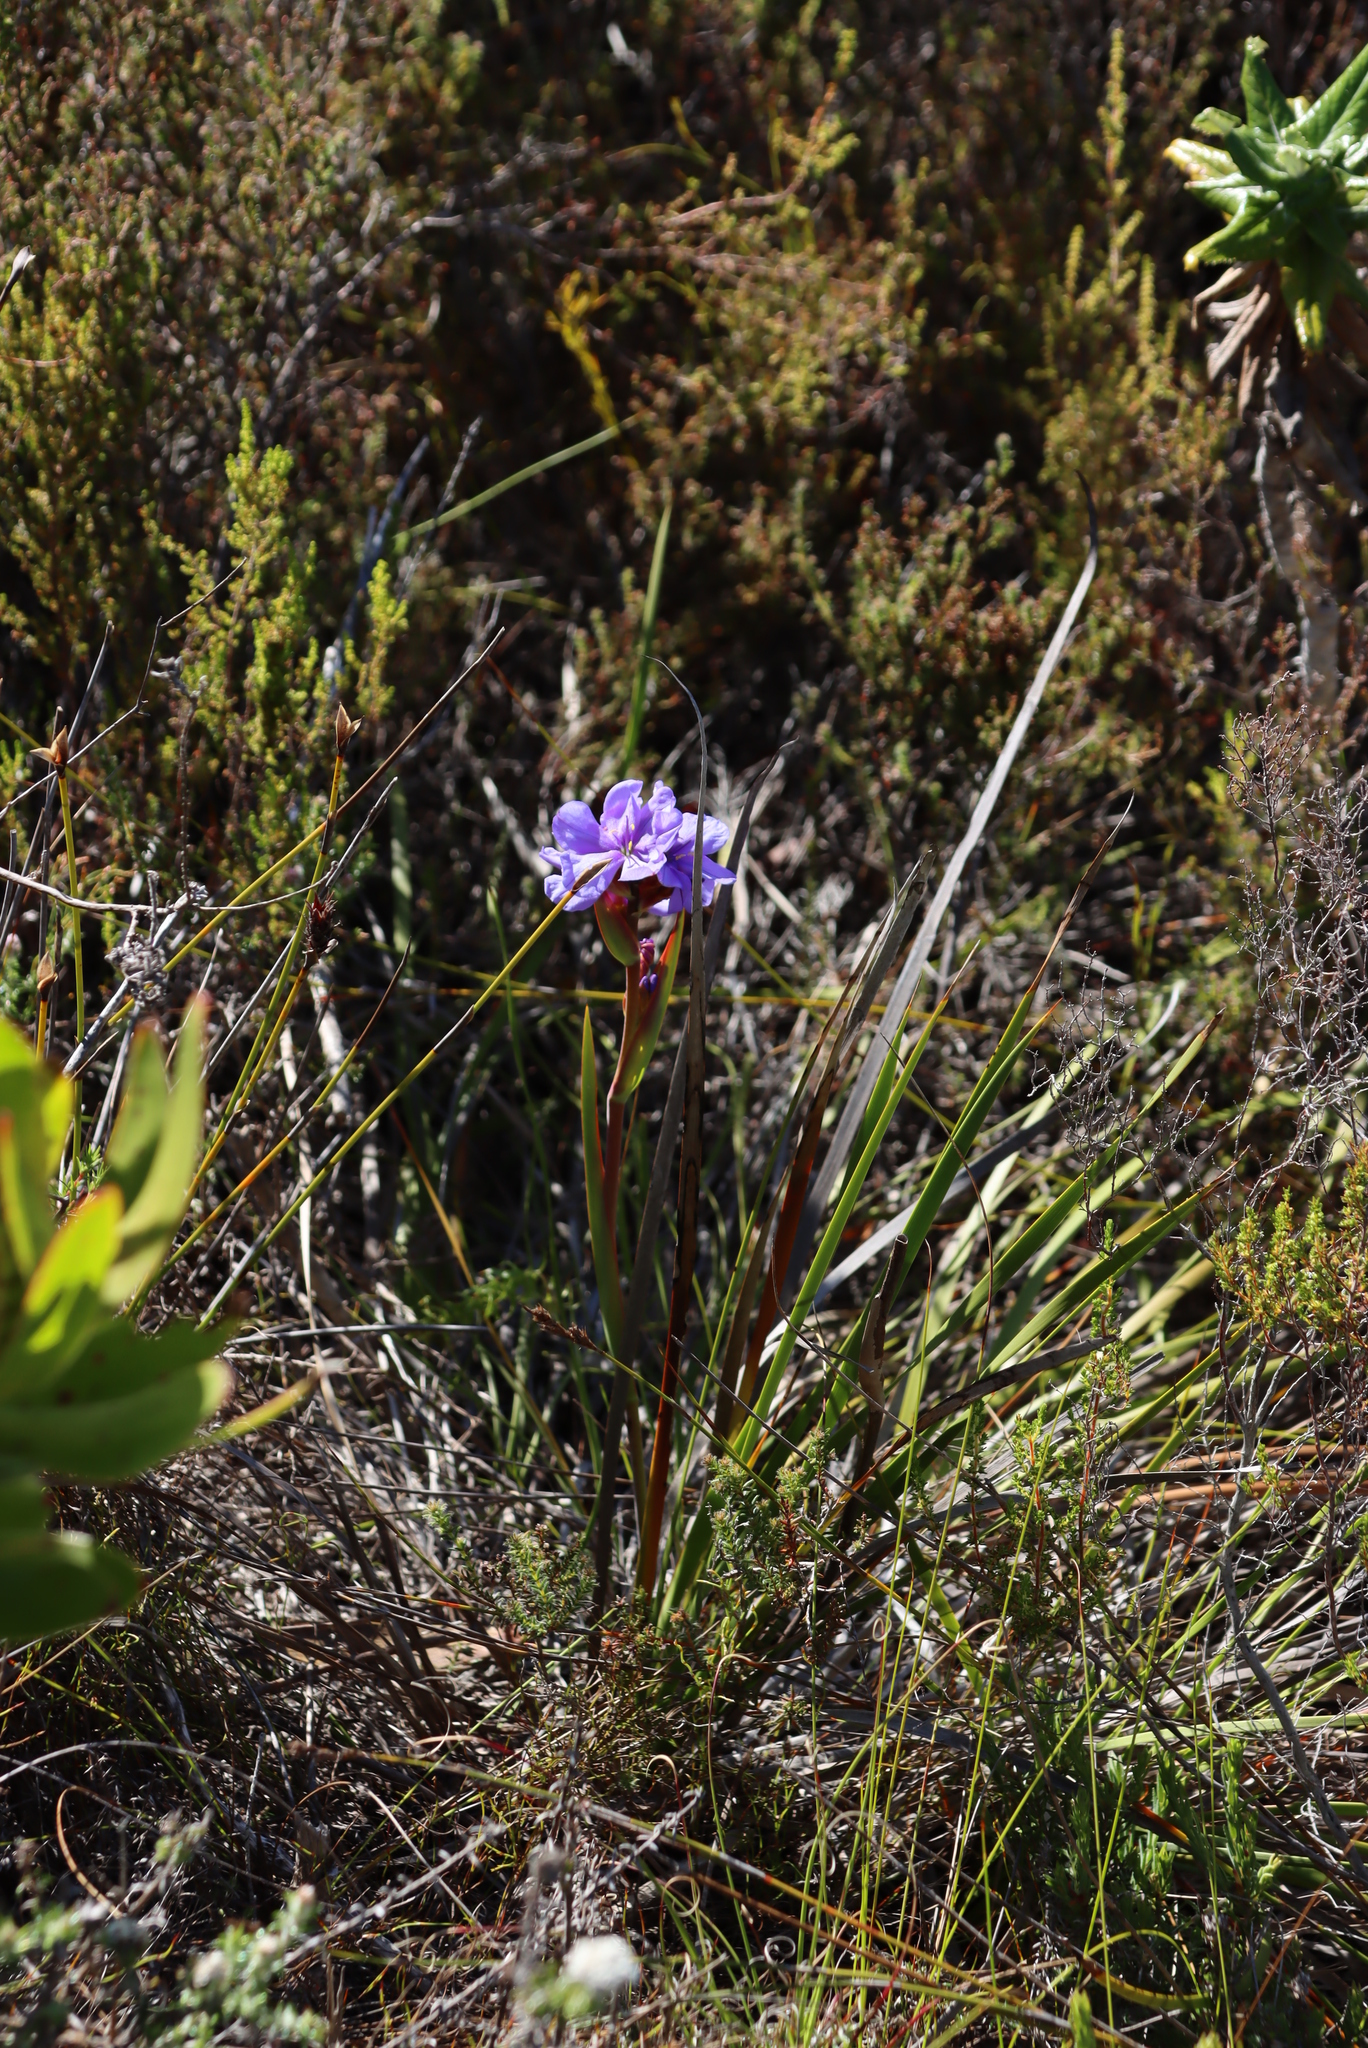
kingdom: Plantae
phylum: Tracheophyta
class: Liliopsida
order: Asparagales
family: Iridaceae
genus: Aristea
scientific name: Aristea juncifolia
